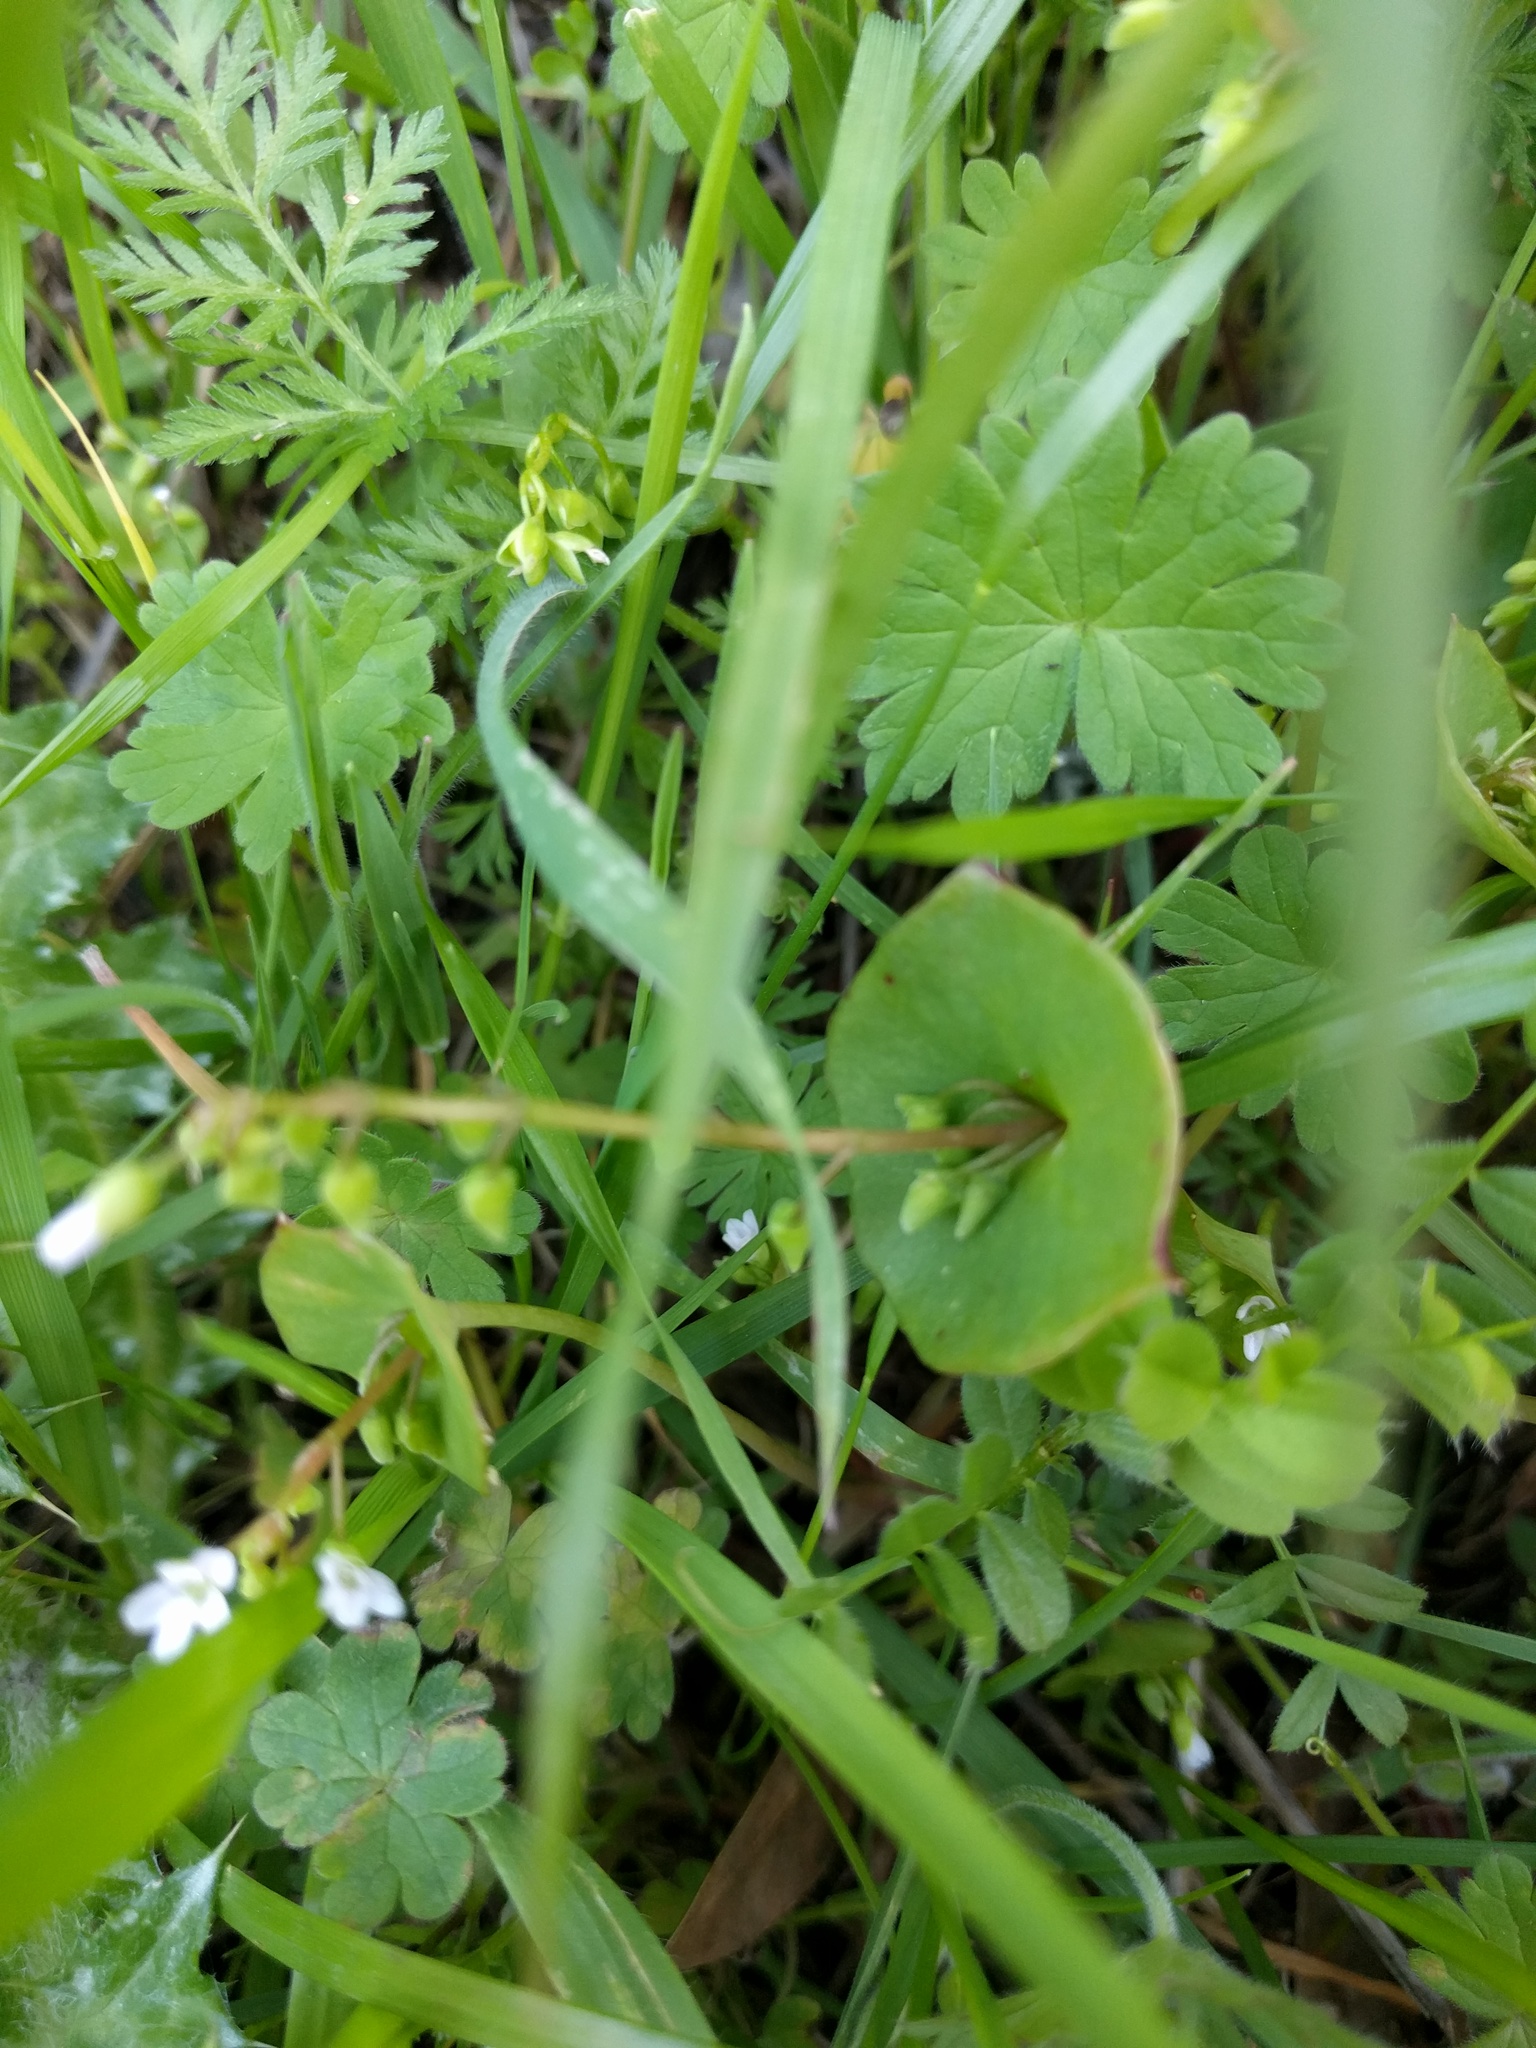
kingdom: Plantae
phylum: Tracheophyta
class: Magnoliopsida
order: Caryophyllales
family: Montiaceae
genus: Claytonia
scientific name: Claytonia perfoliata
